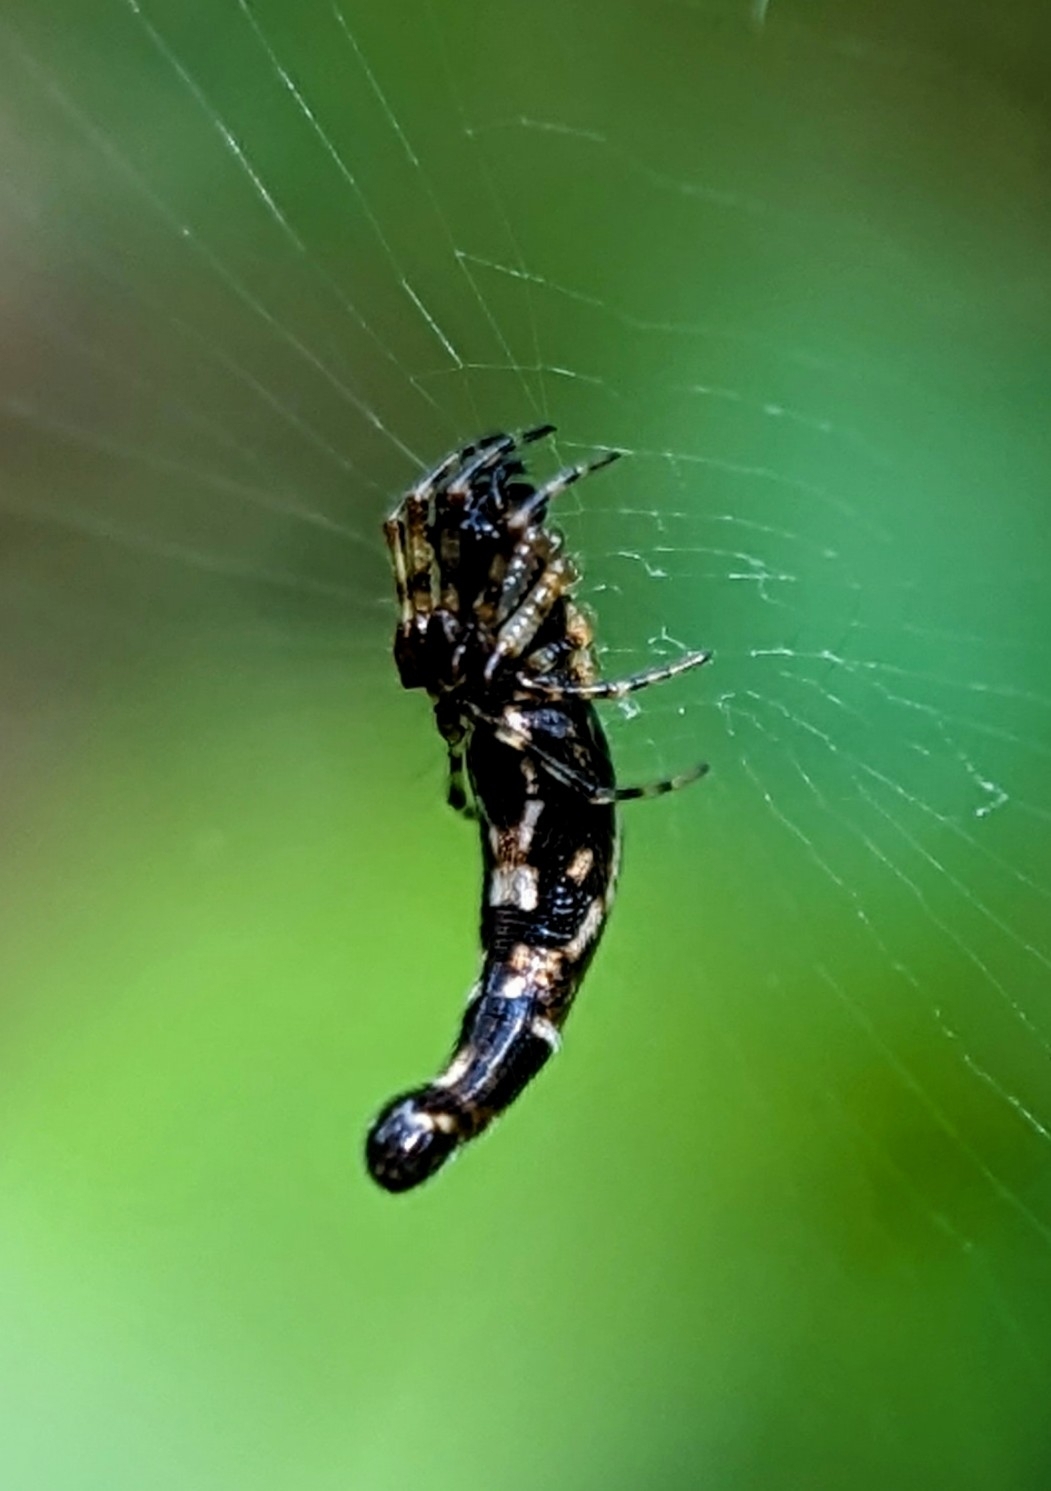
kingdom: Animalia
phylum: Arthropoda
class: Arachnida
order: Araneae
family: Araneidae
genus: Cyclosa
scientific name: Cyclosa bifida
